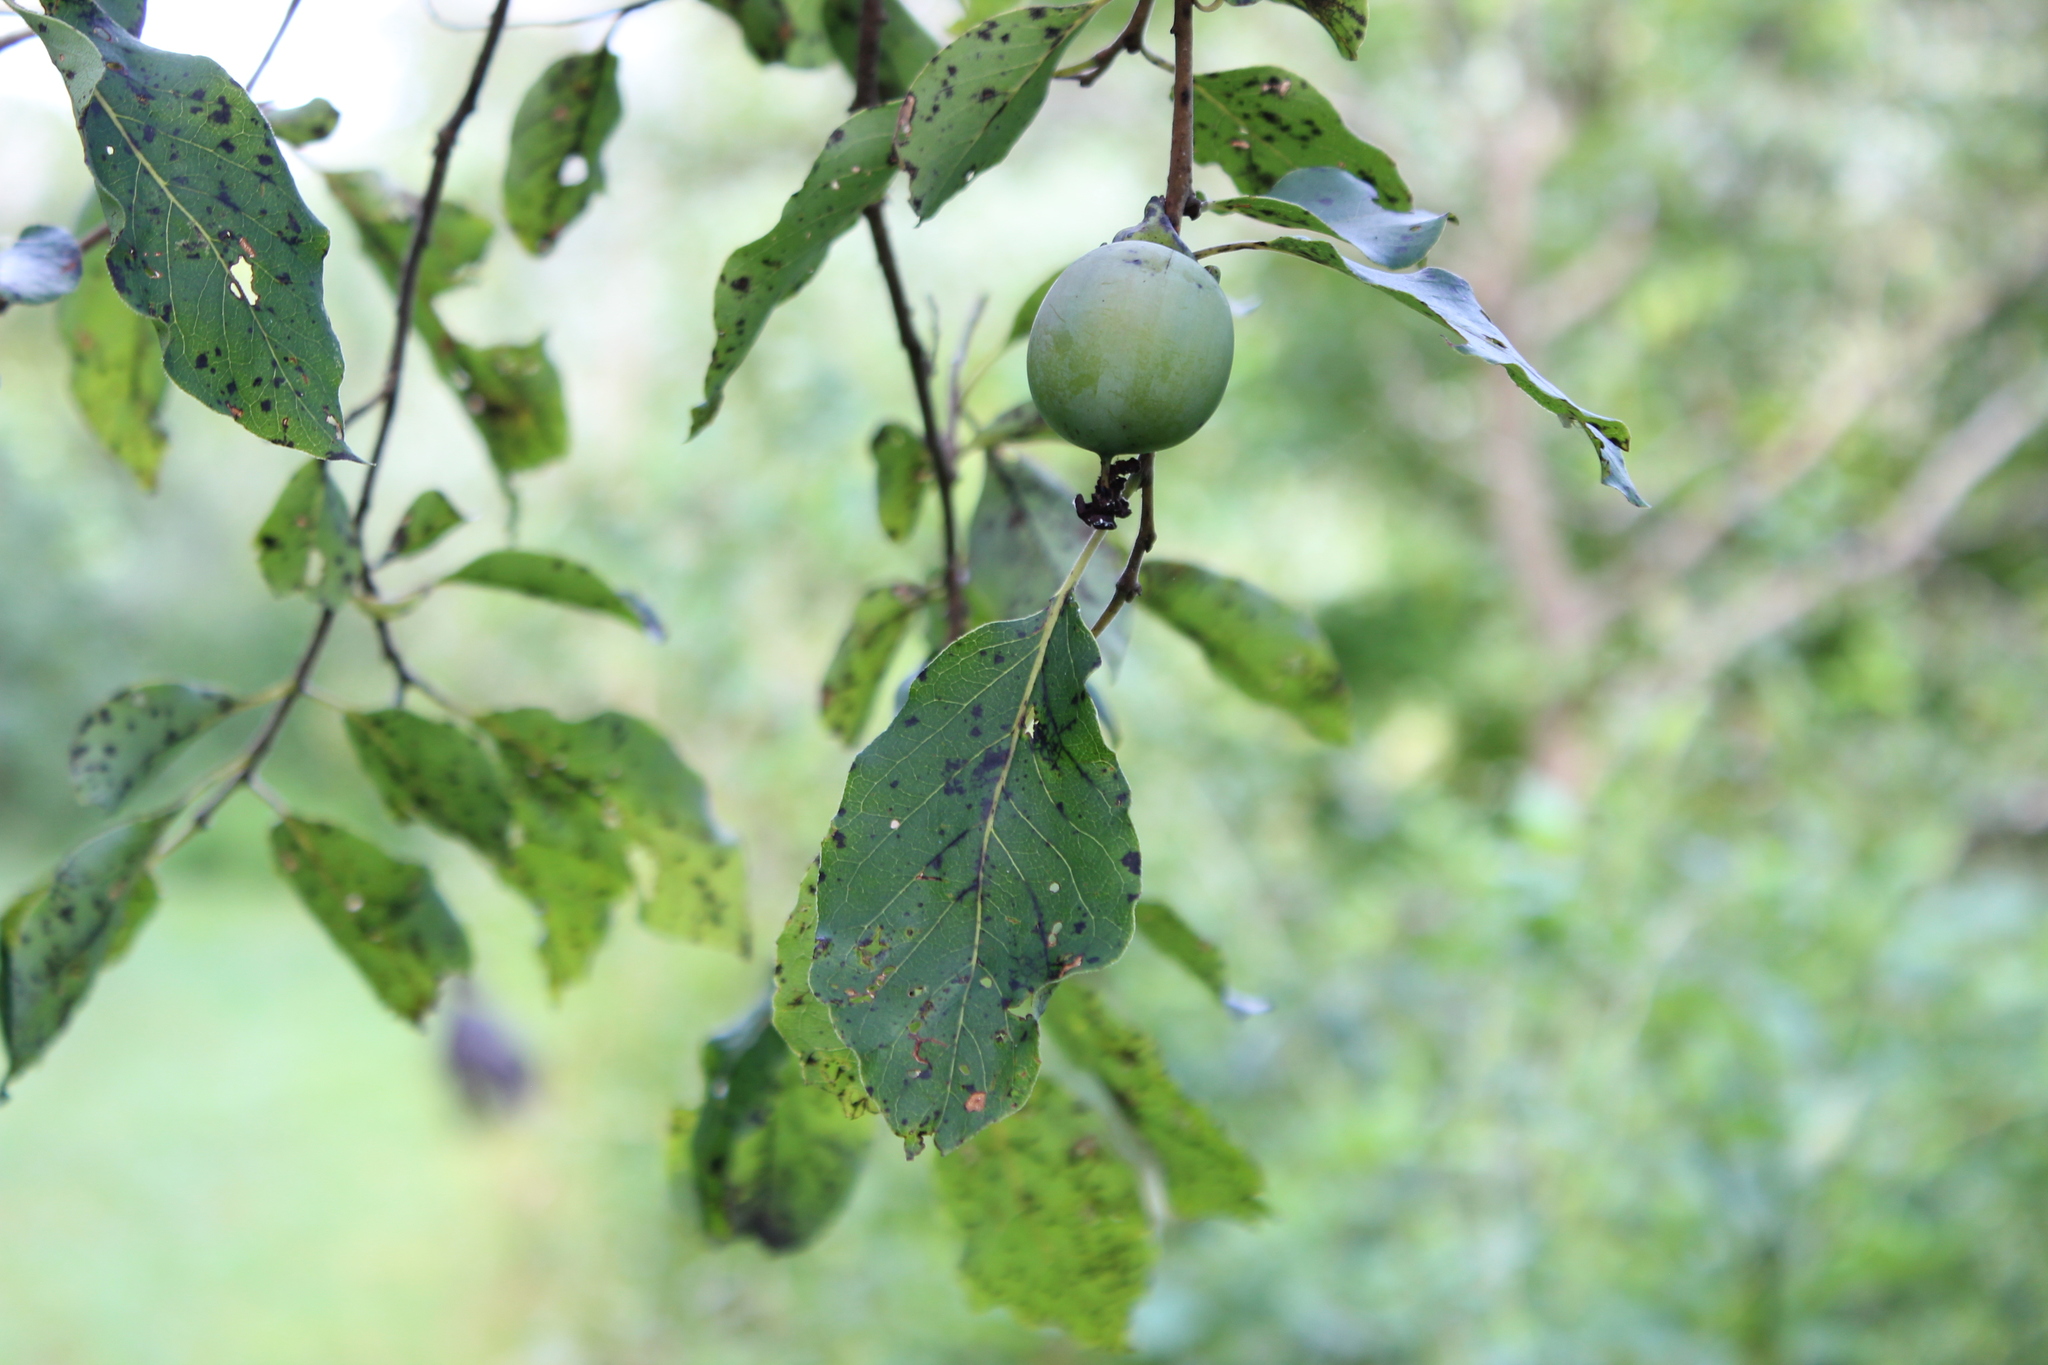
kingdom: Plantae
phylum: Tracheophyta
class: Magnoliopsida
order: Ericales
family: Ebenaceae
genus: Diospyros
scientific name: Diospyros virginiana
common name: Persimmon
